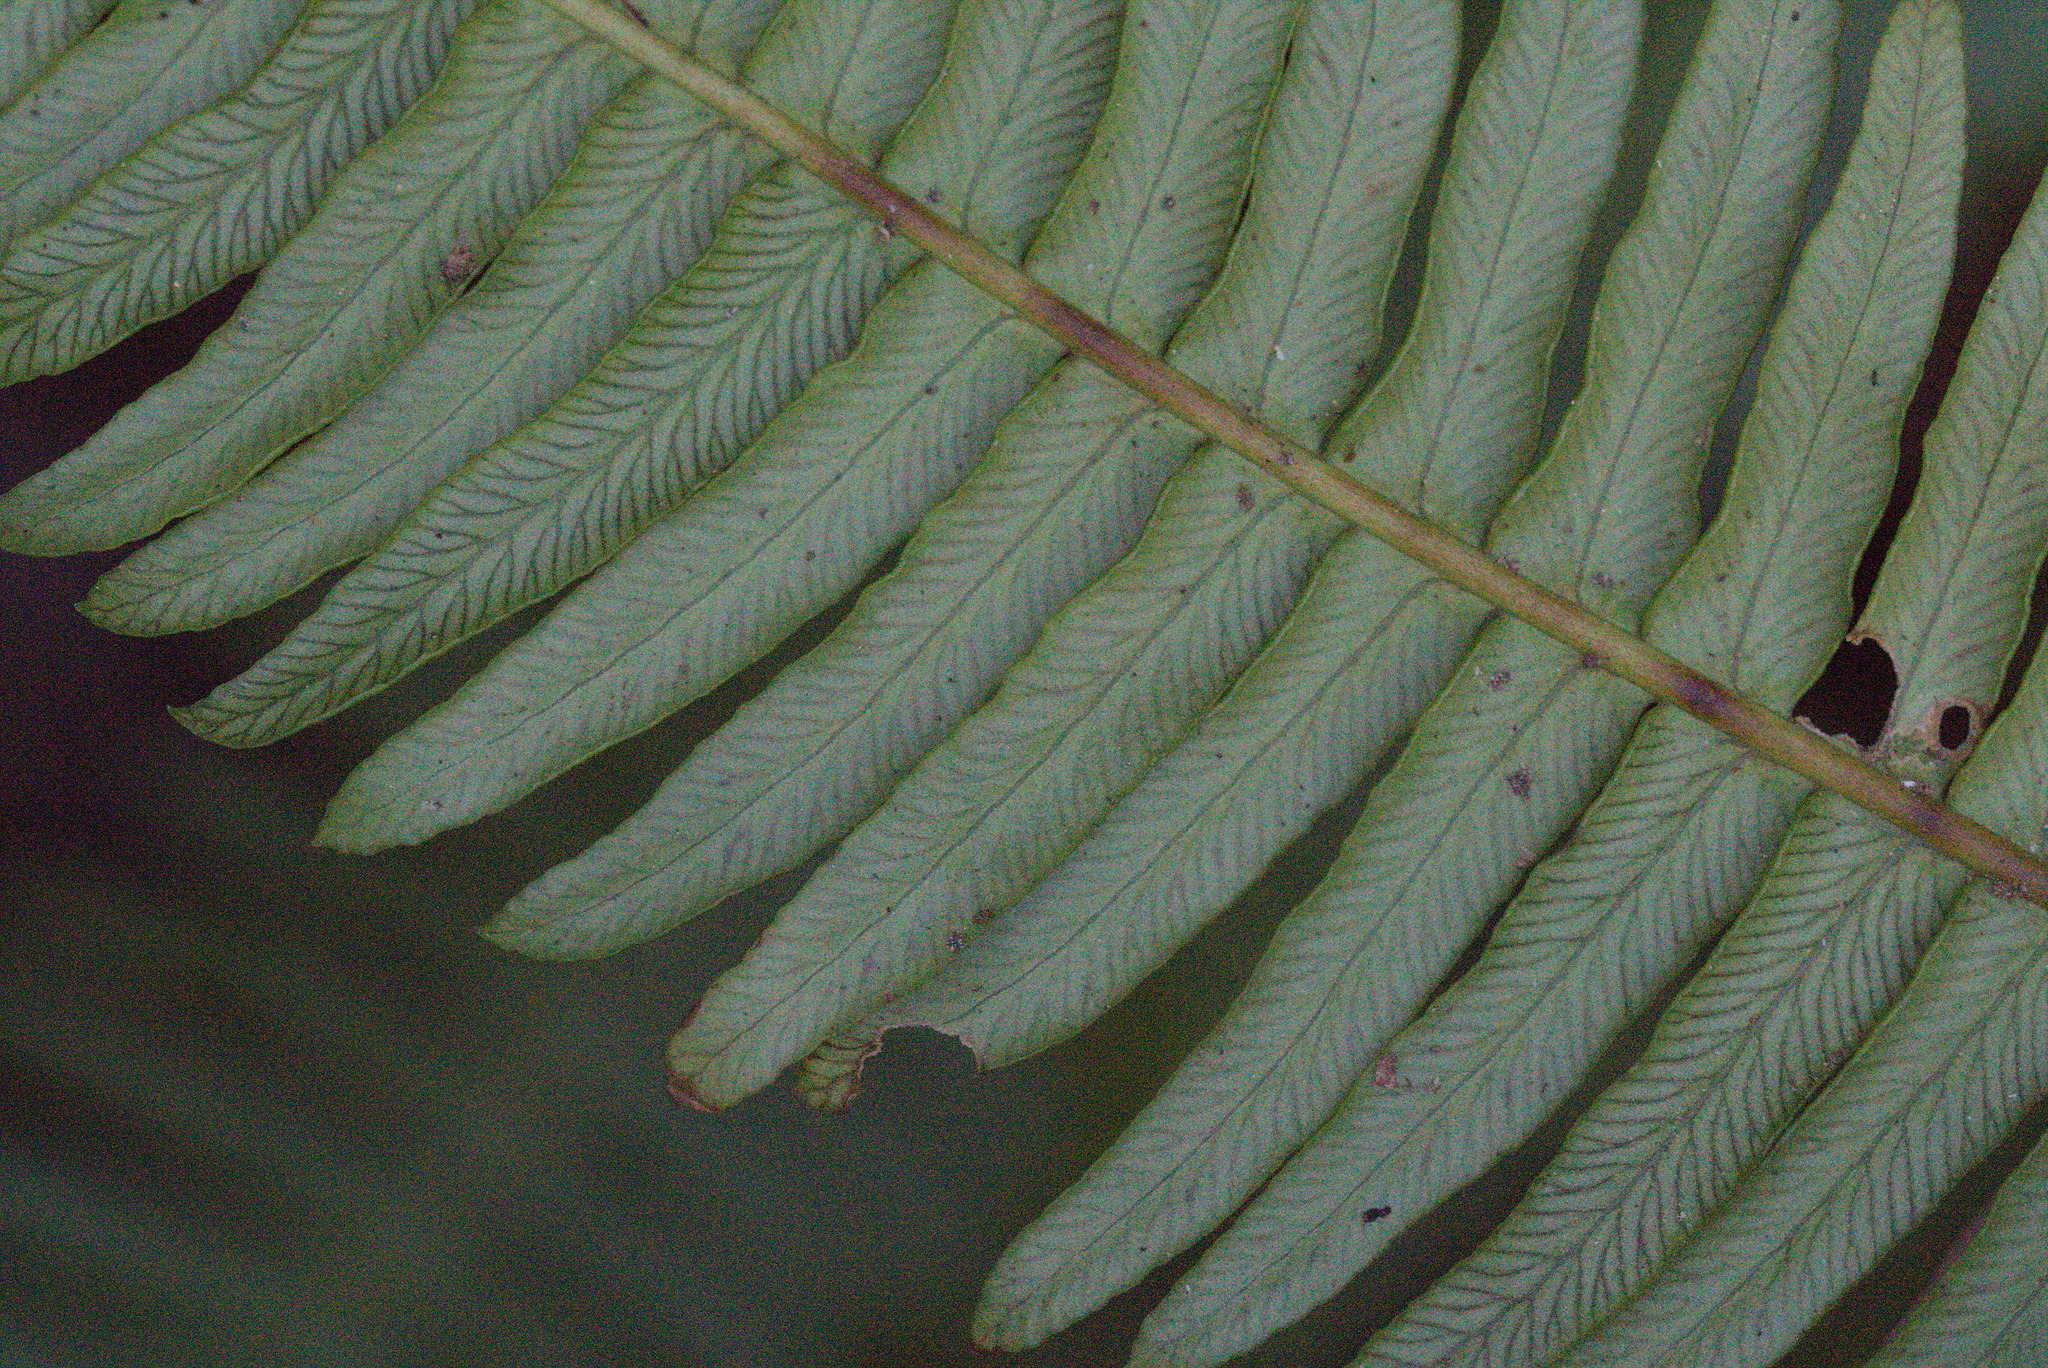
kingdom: Plantae
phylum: Tracheophyta
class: Polypodiopsida
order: Polypodiales
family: Blechnaceae
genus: Struthiopteris
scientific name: Struthiopteris spicant
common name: Deer fern
